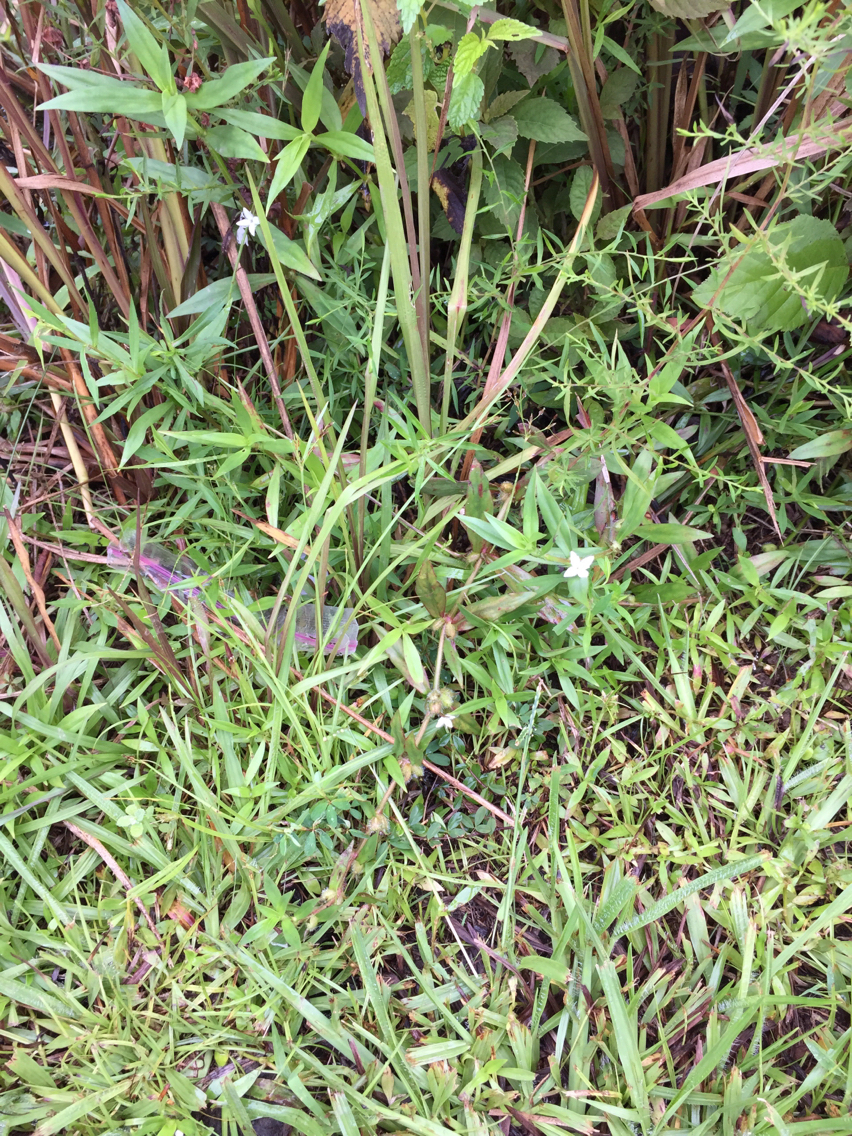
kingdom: Plantae
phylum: Tracheophyta
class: Magnoliopsida
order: Gentianales
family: Rubiaceae
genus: Diodia
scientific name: Diodia virginiana
